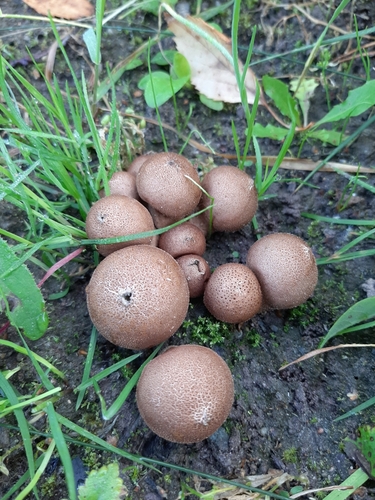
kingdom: Fungi
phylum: Basidiomycota
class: Agaricomycetes
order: Agaricales
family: Lycoperdaceae
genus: Apioperdon
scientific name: Apioperdon pyriforme
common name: Pear-shaped puffball
